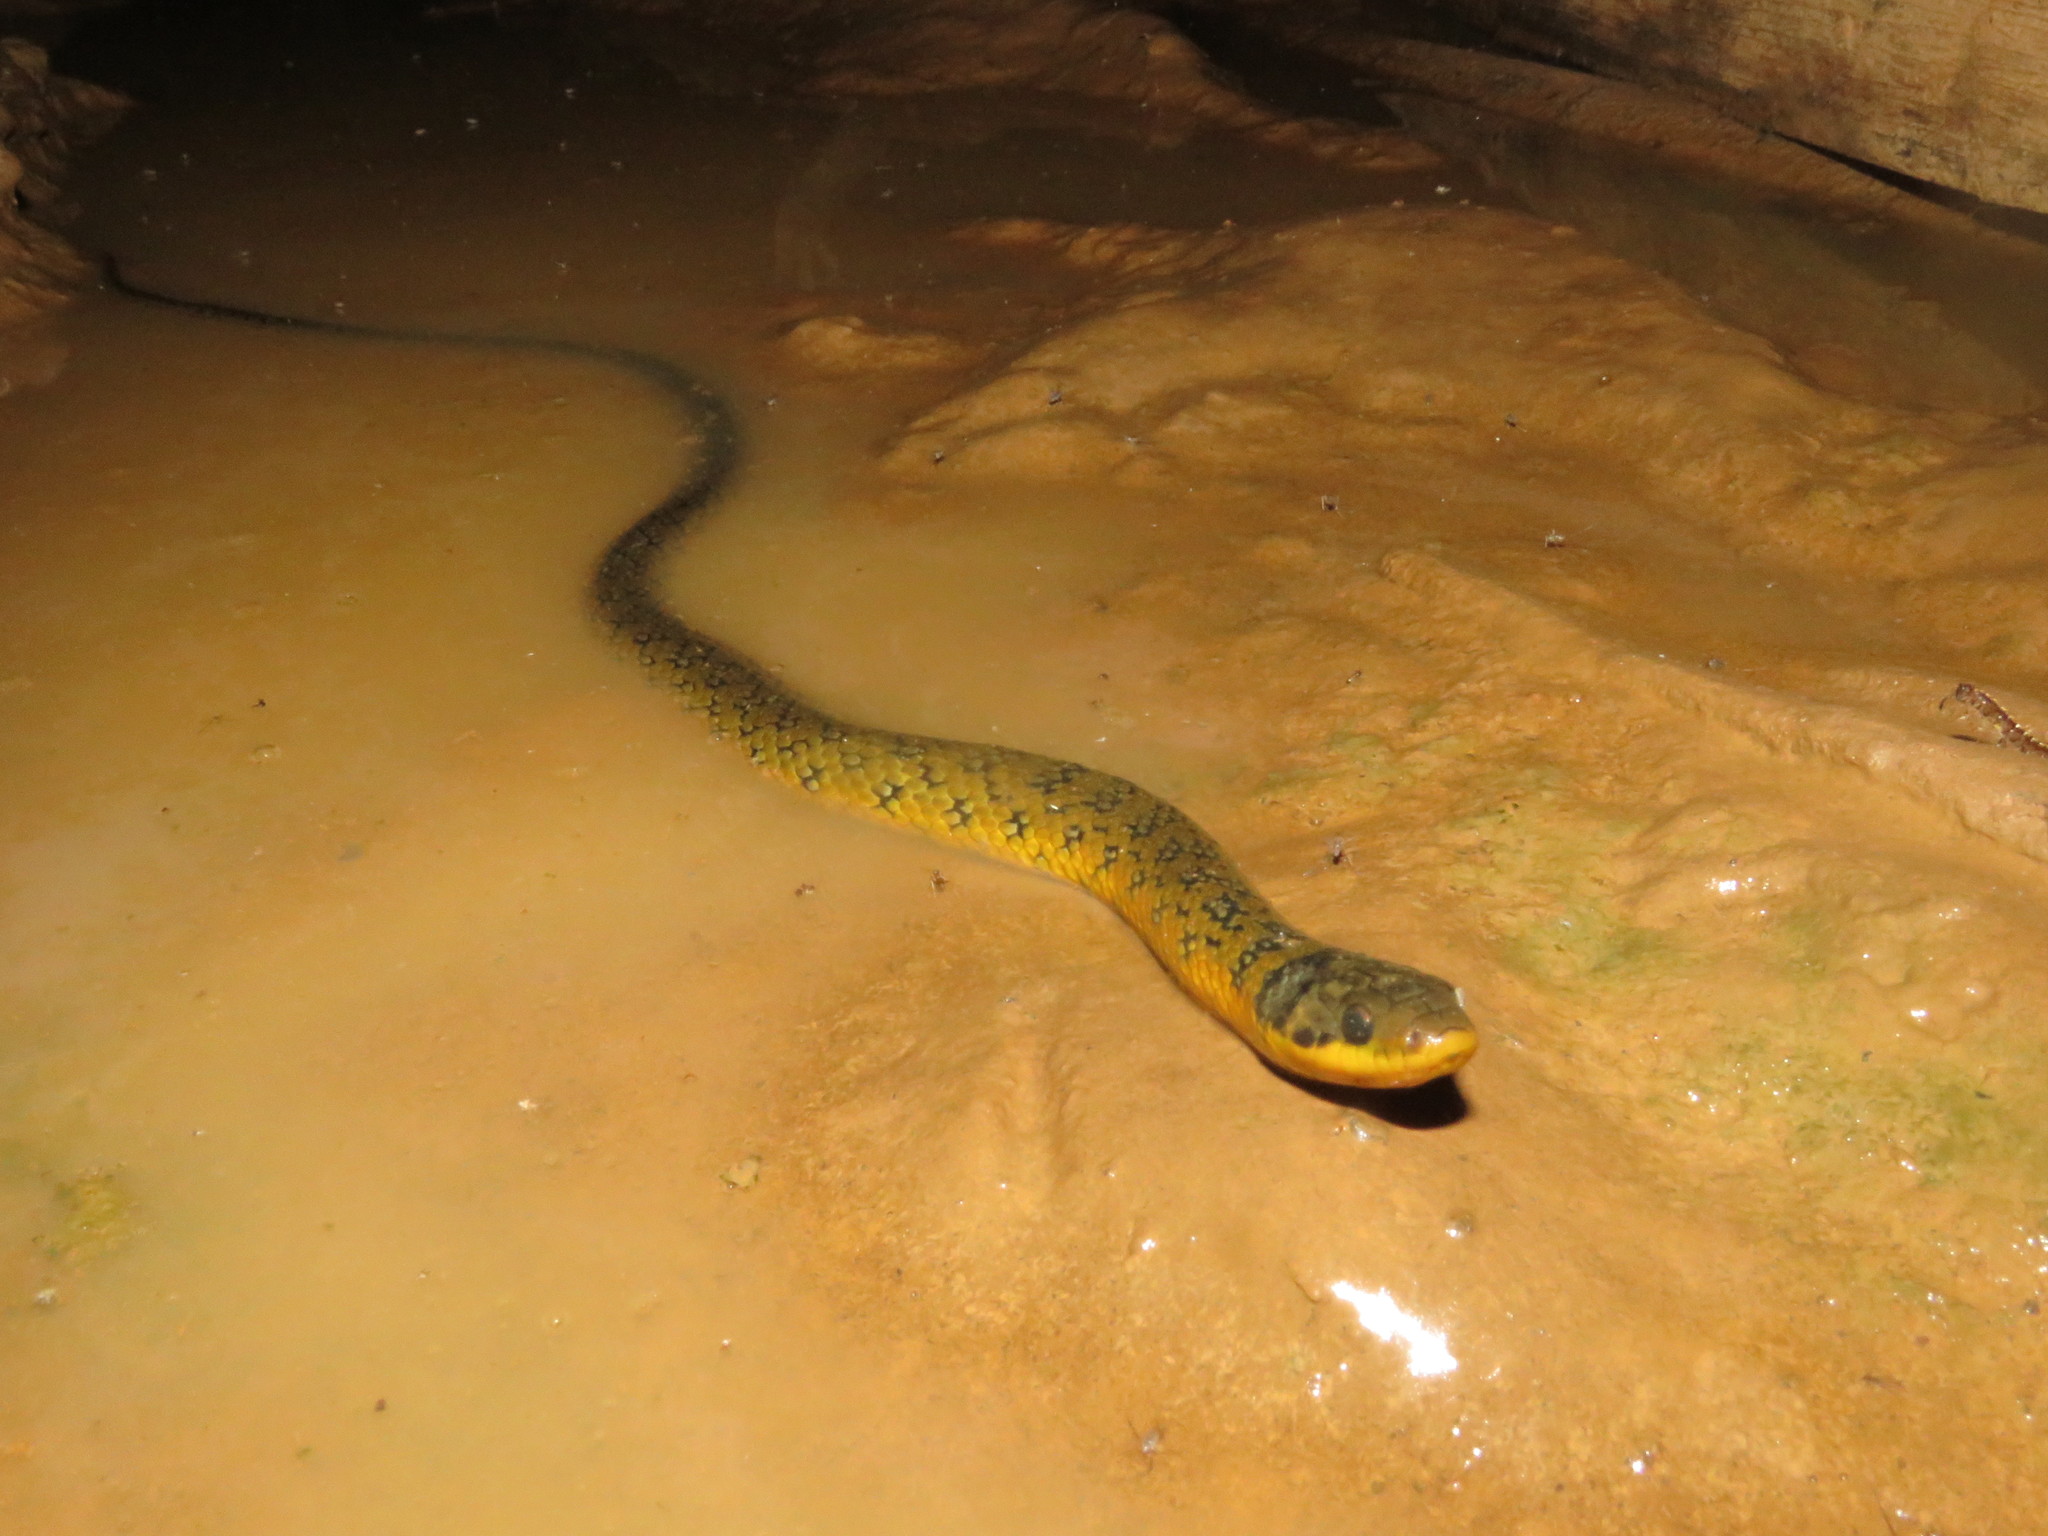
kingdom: Animalia
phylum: Chordata
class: Squamata
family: Colubridae
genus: Erythrolamprus
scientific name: Erythrolamprus reginae
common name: Royal ground snake
